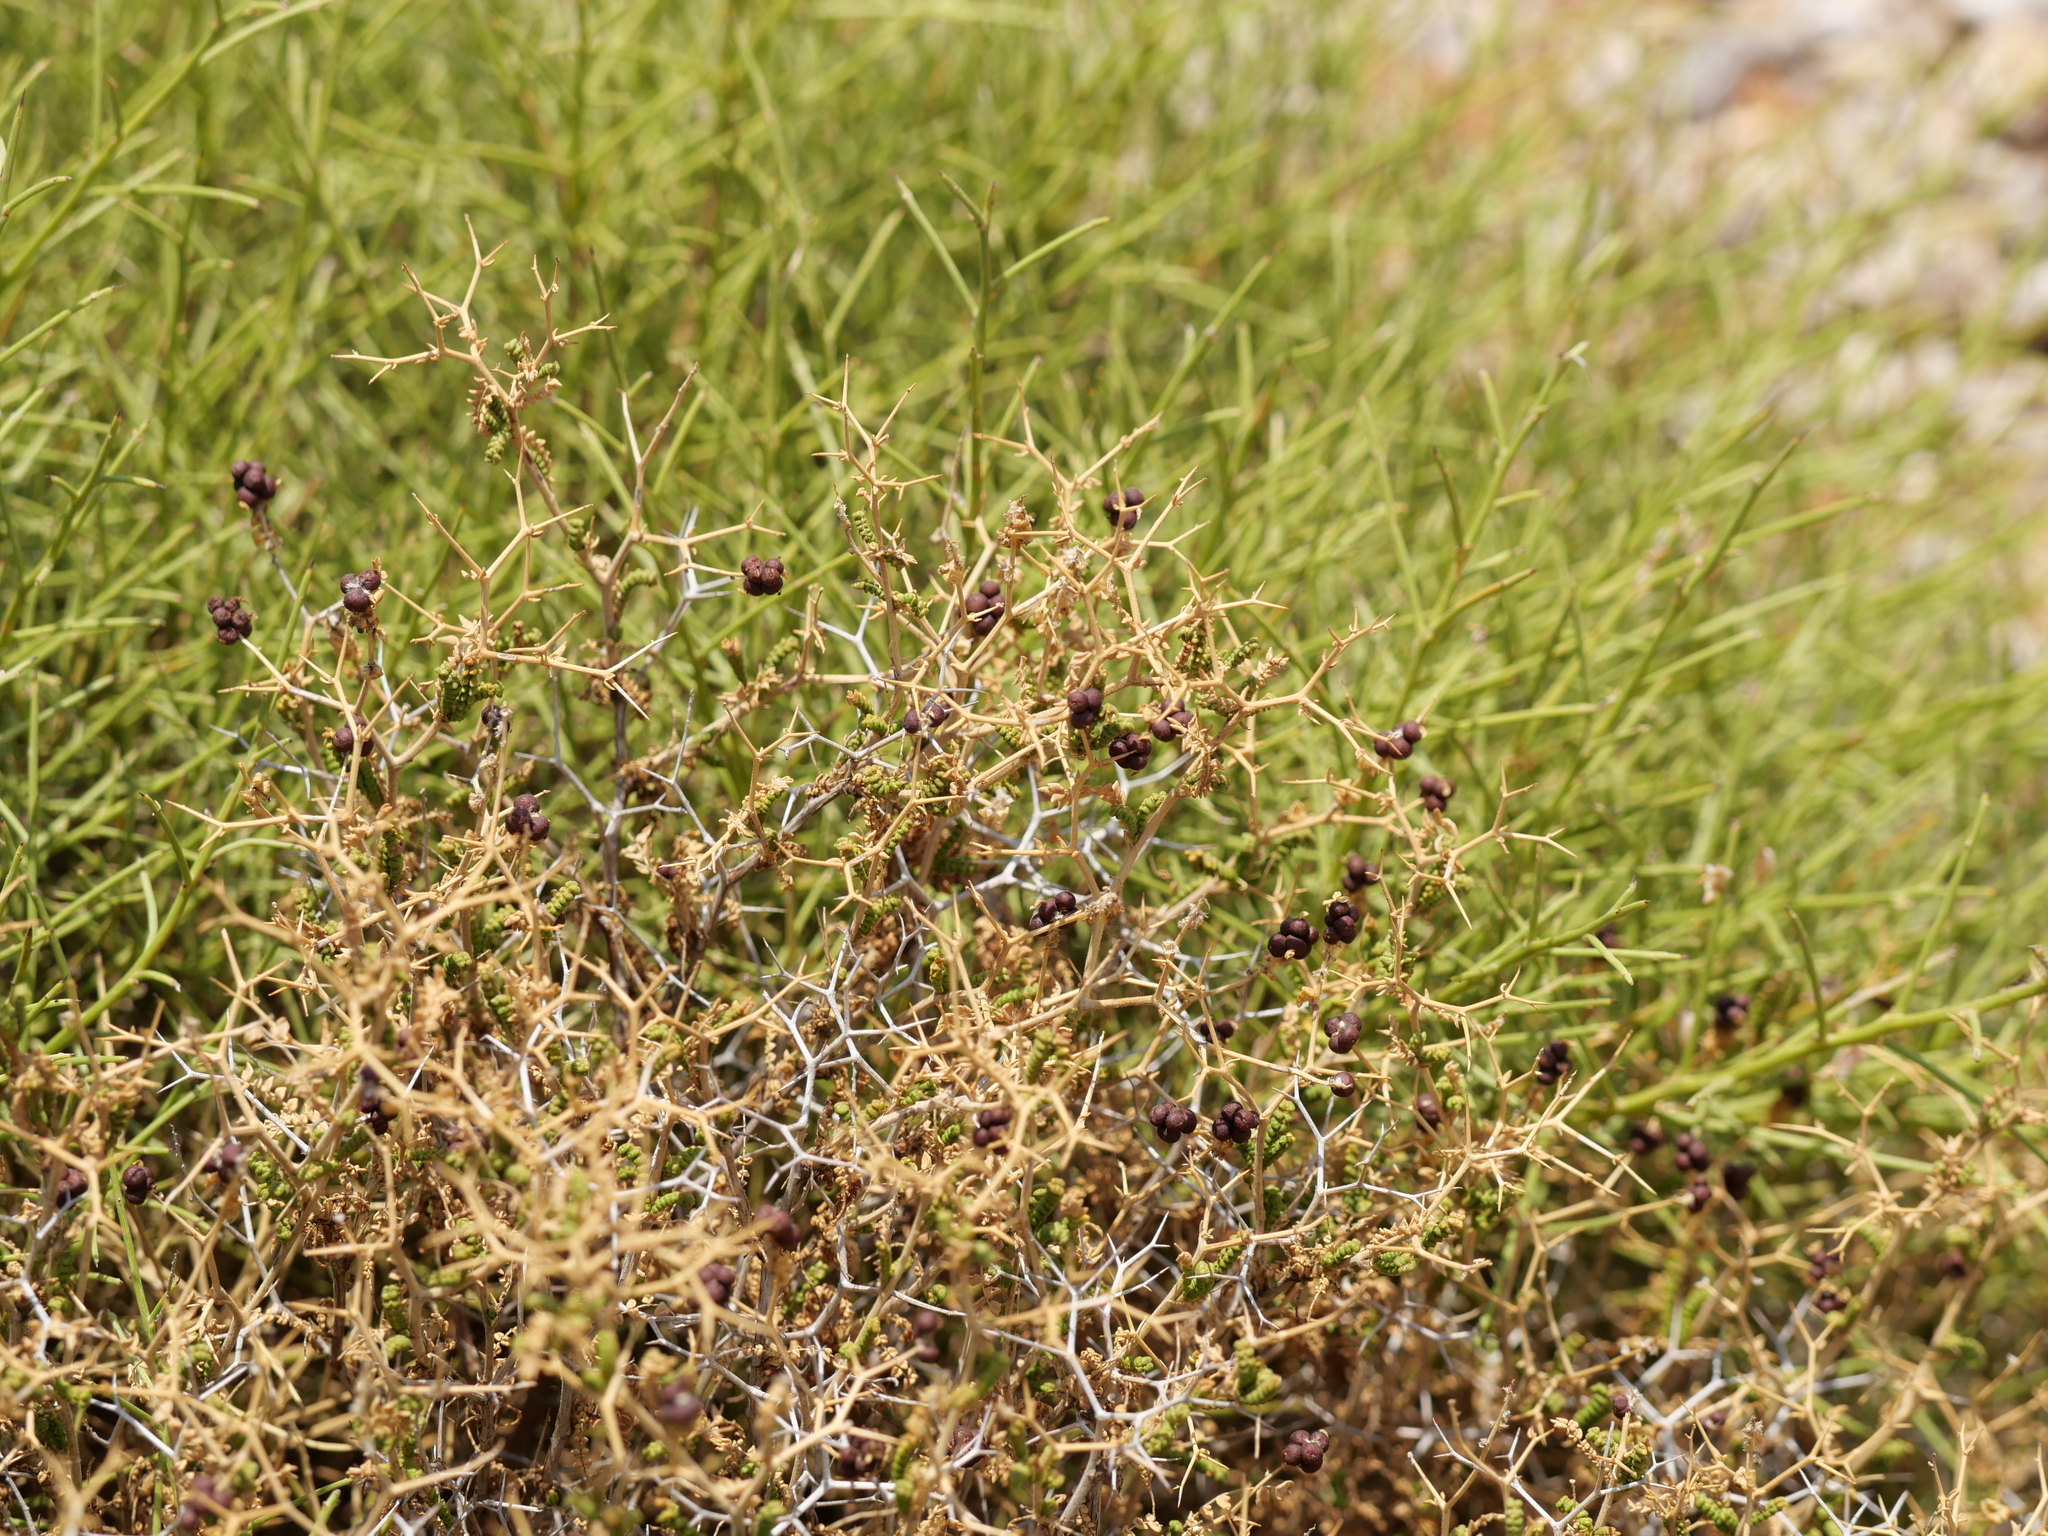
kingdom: Plantae
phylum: Tracheophyta
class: Magnoliopsida
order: Rosales
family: Rosaceae
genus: Sarcopoterium
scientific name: Sarcopoterium spinosum
